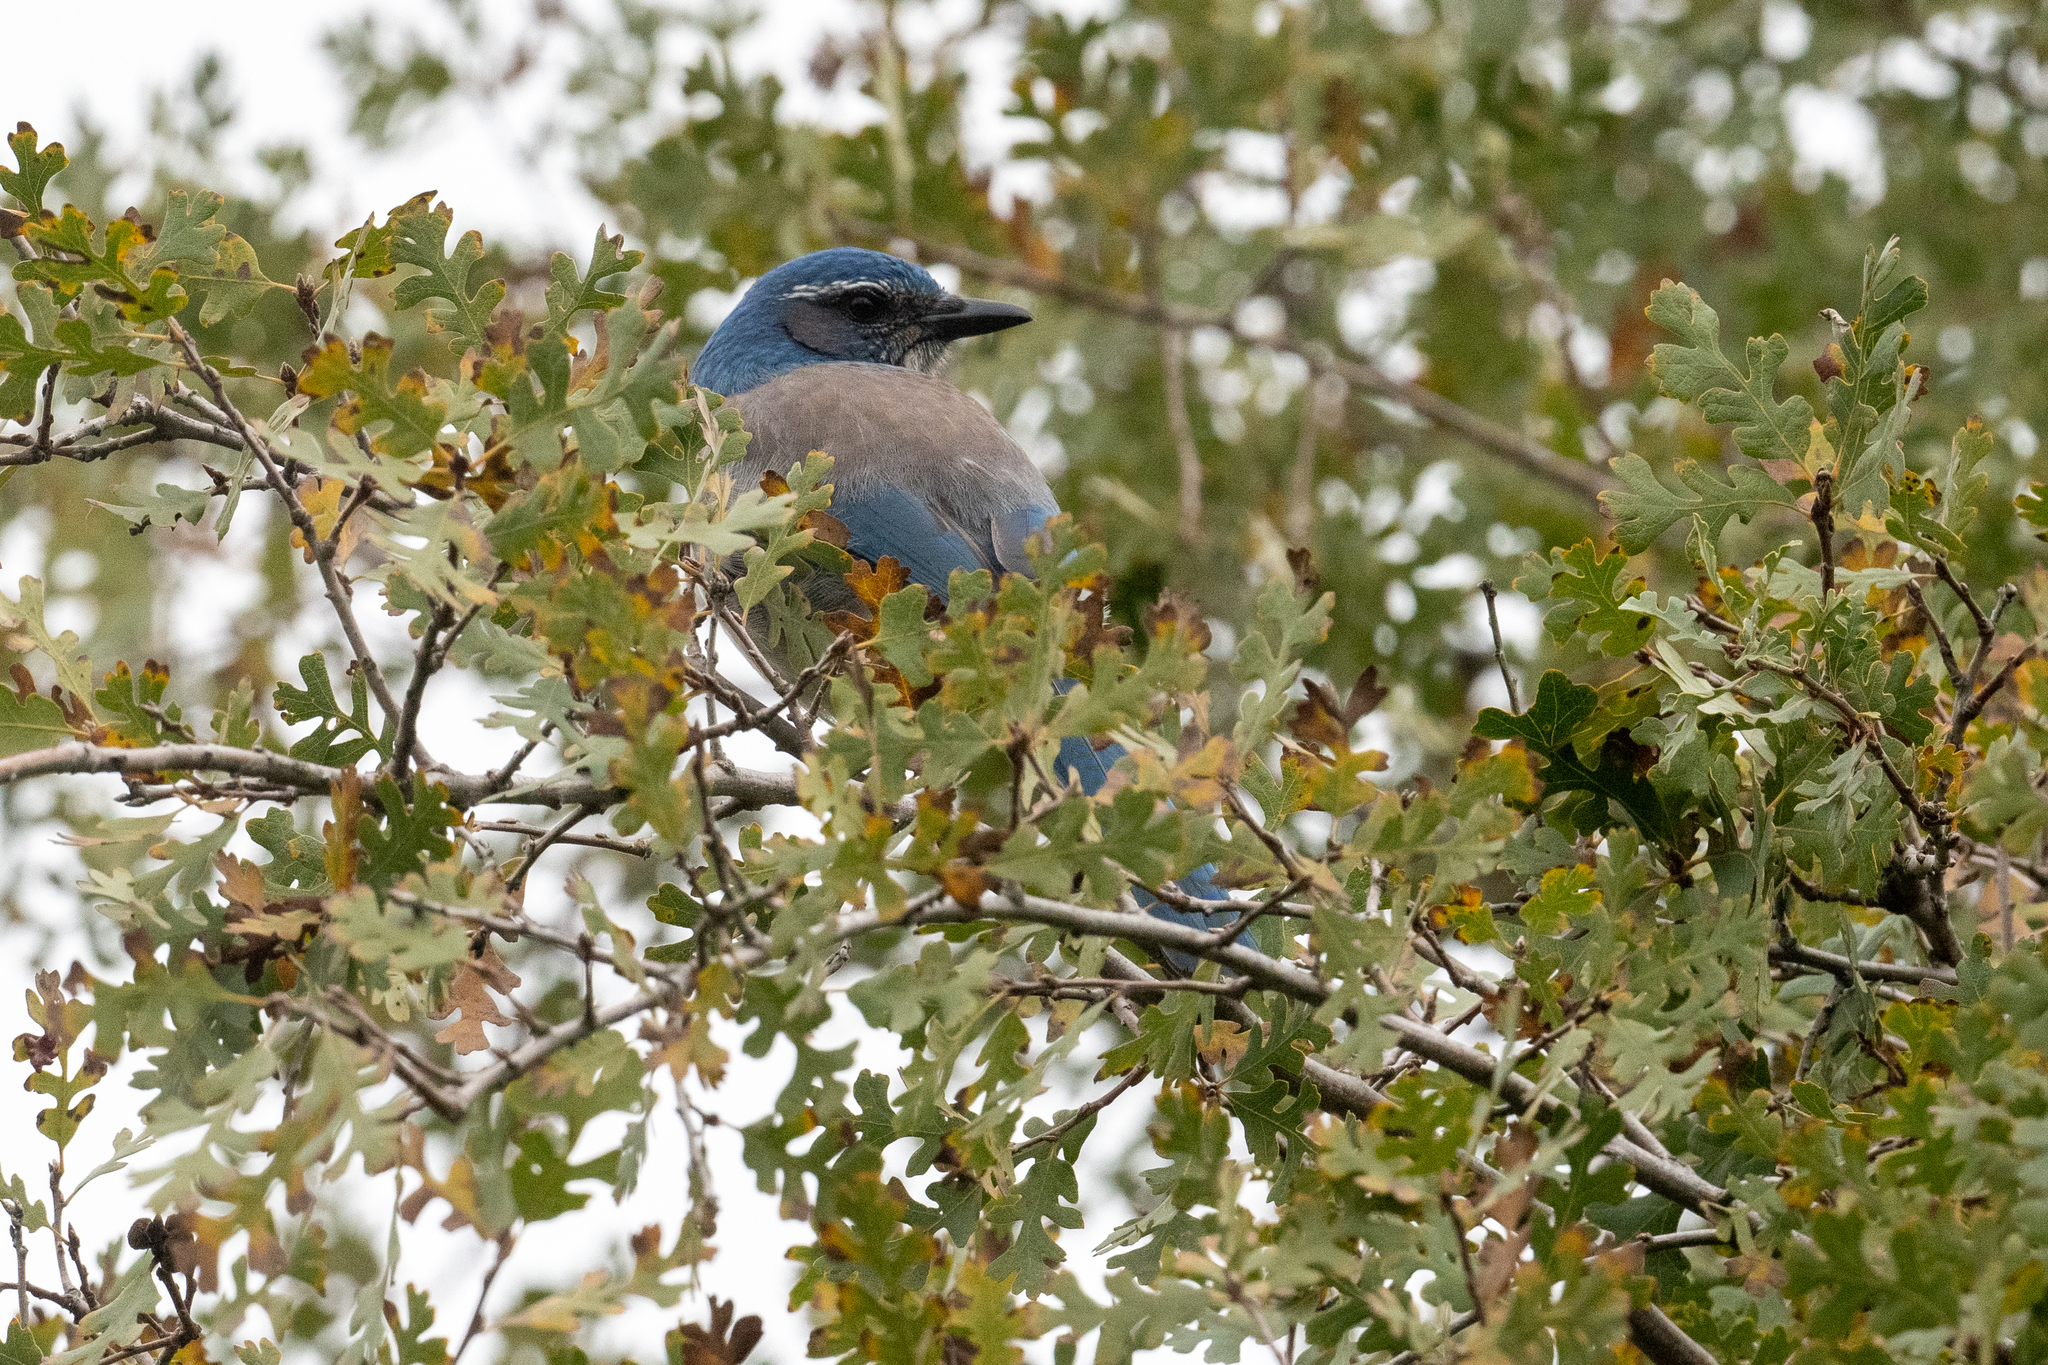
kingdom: Animalia
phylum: Chordata
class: Aves
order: Passeriformes
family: Corvidae
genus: Aphelocoma
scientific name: Aphelocoma californica
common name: California scrub-jay
